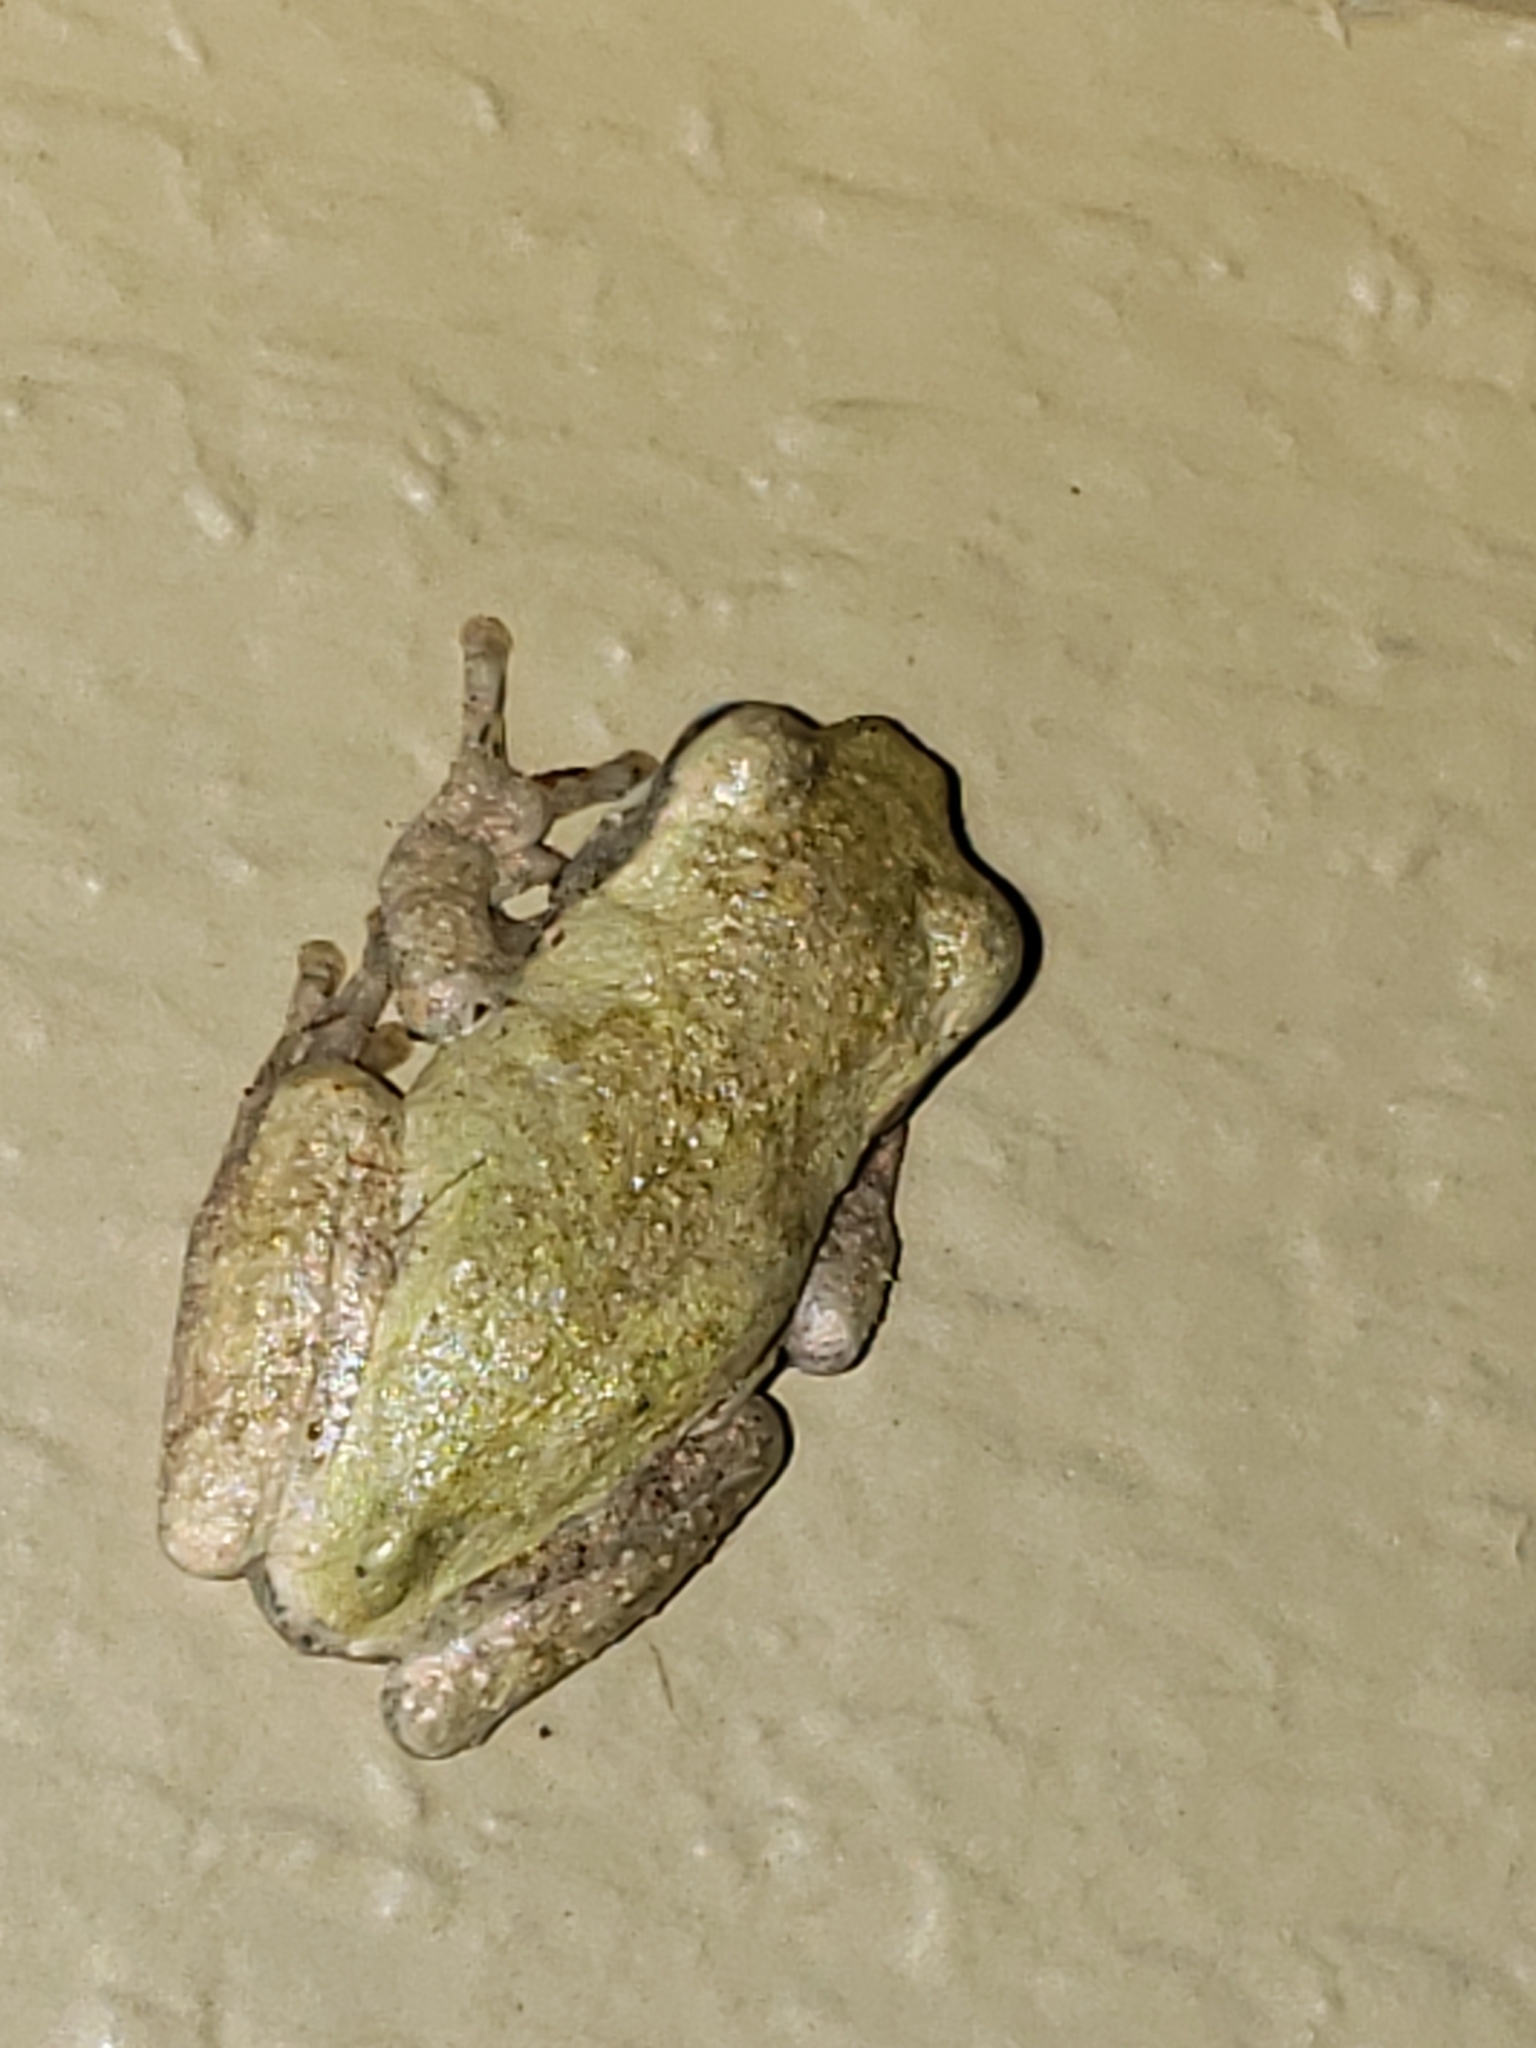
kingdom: Animalia
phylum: Chordata
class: Amphibia
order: Anura
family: Hylidae
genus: Hyla
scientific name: Hyla
